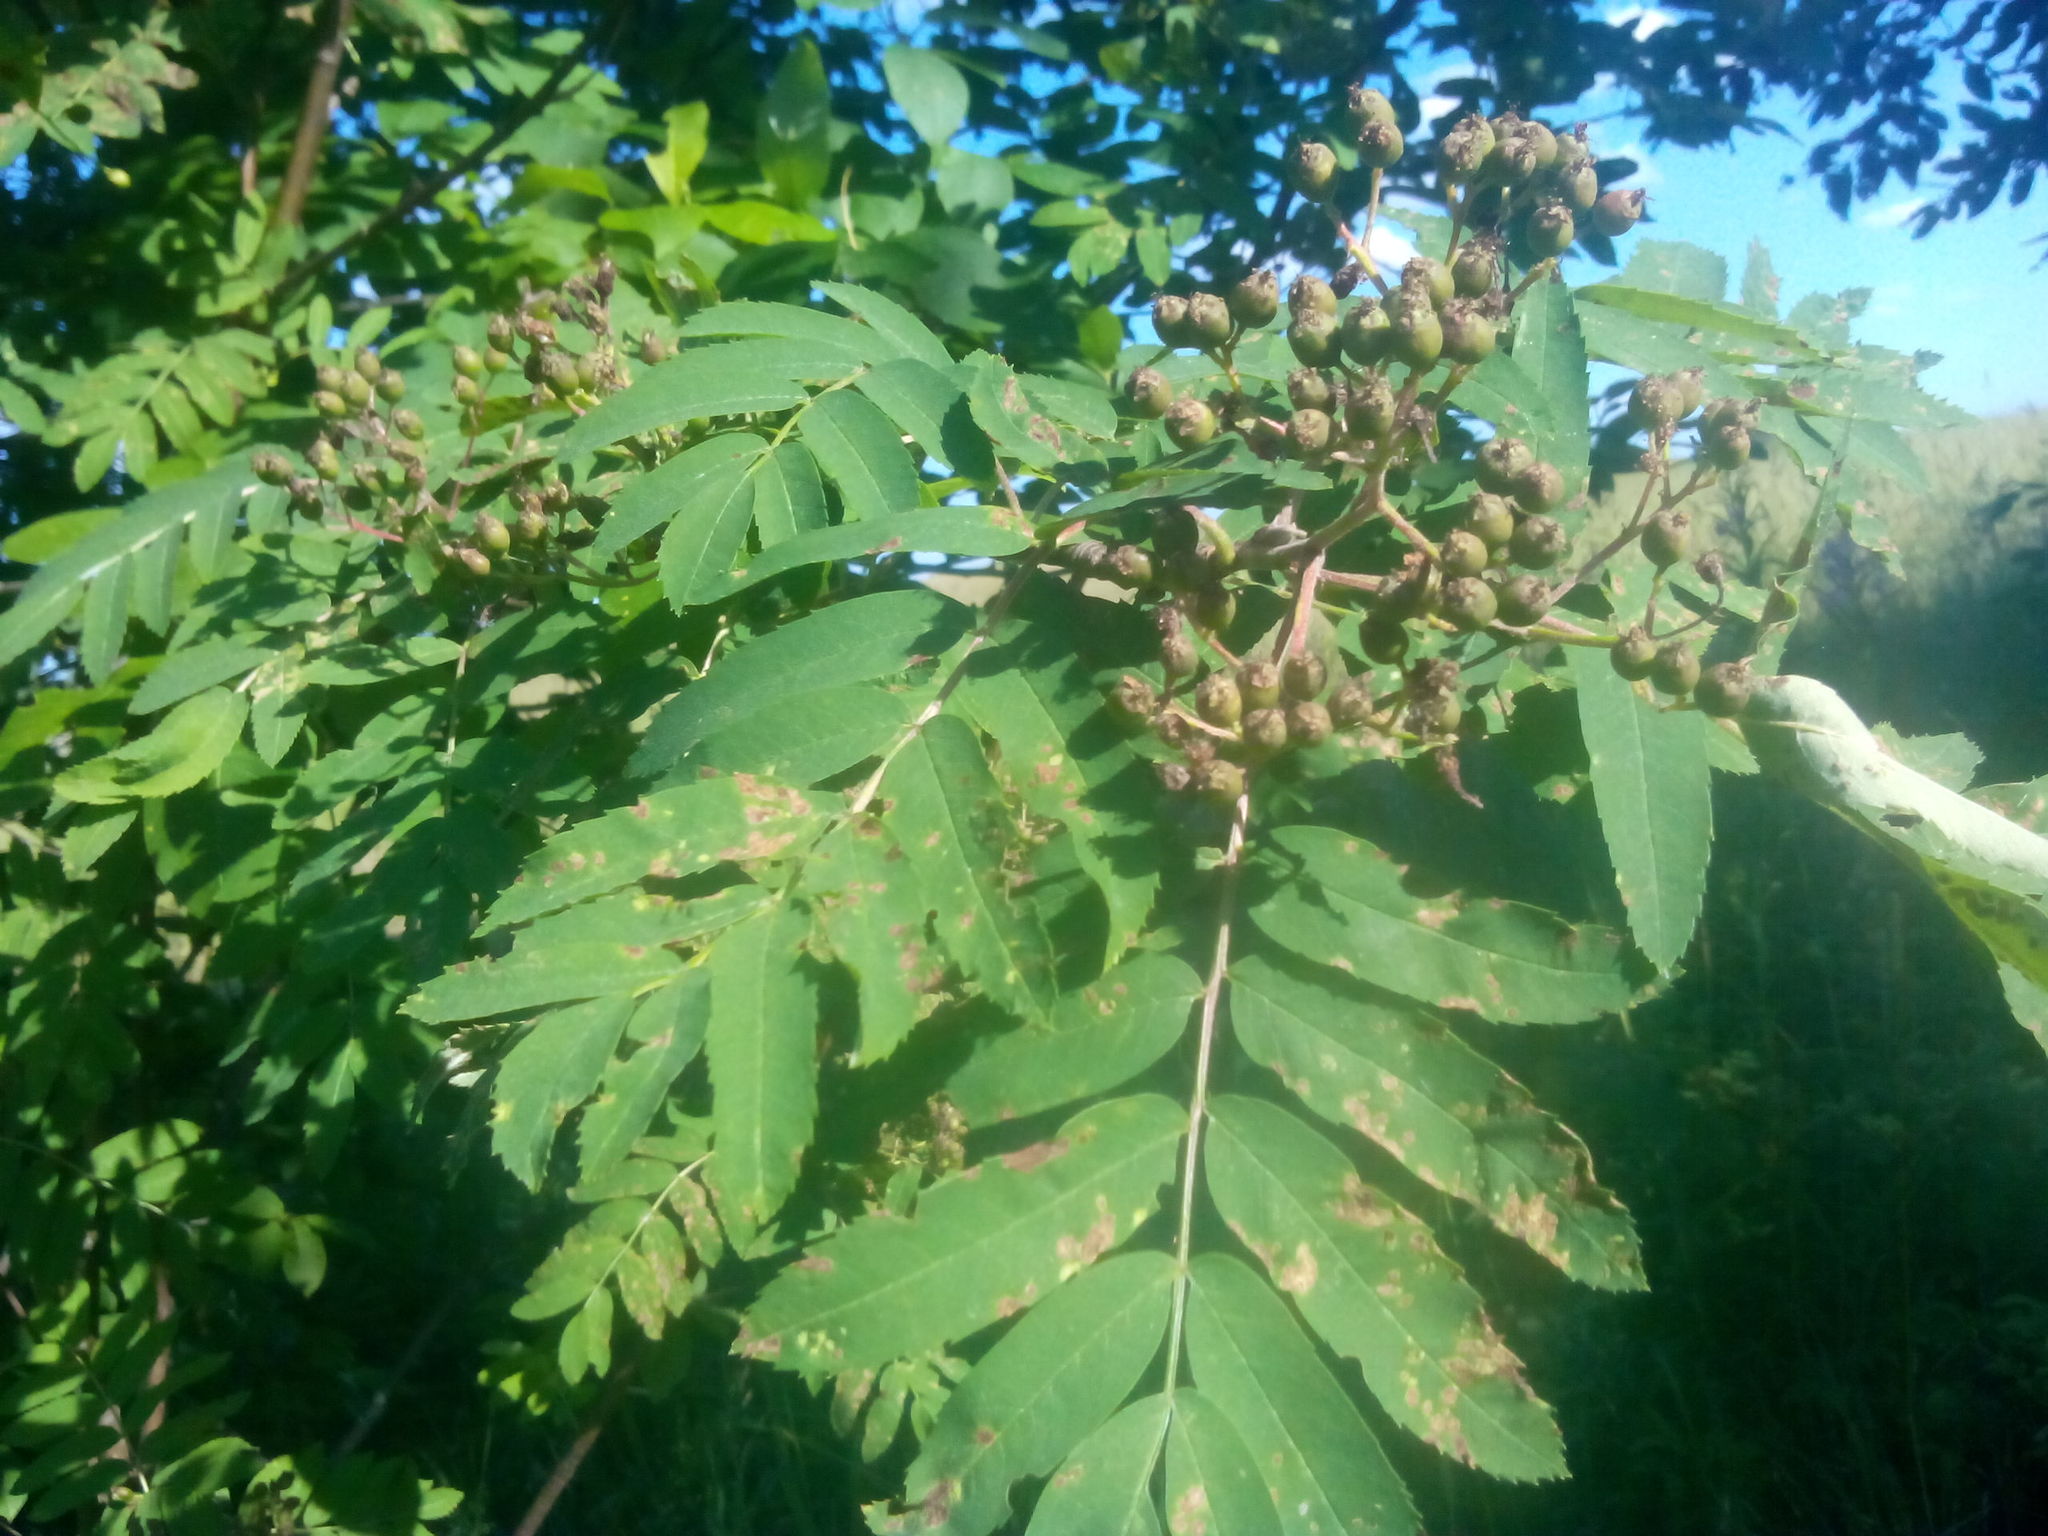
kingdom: Plantae
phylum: Tracheophyta
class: Magnoliopsida
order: Rosales
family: Rosaceae
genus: Sorbus
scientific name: Sorbus aucuparia
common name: Rowan
